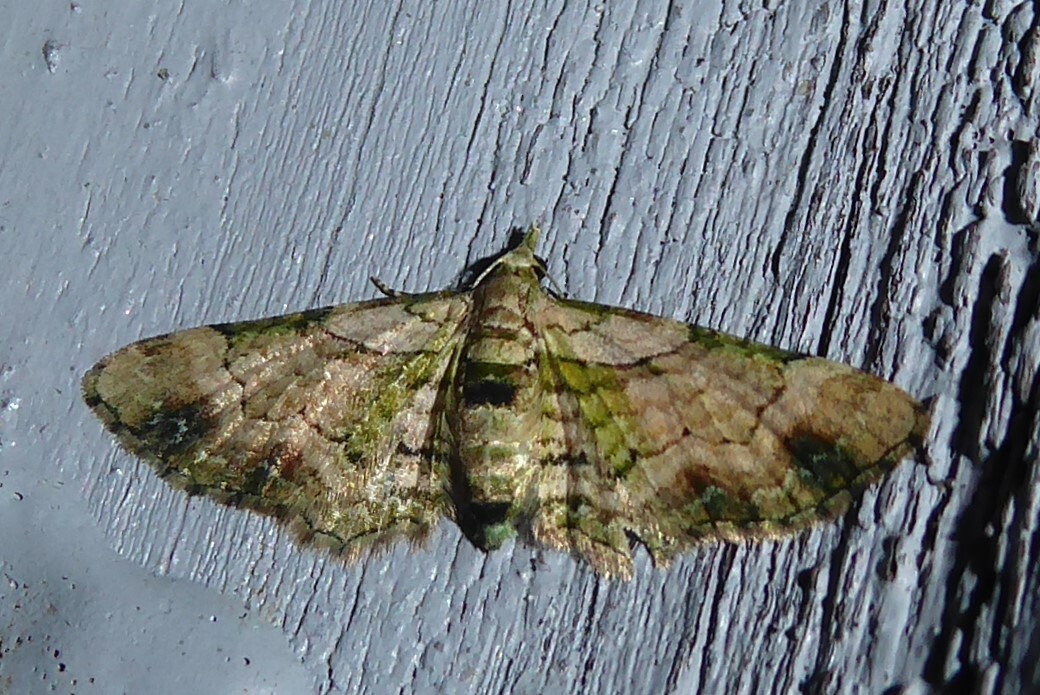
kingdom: Animalia
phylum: Arthropoda
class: Insecta
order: Lepidoptera
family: Geometridae
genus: Chloroclystis
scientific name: Chloroclystis
